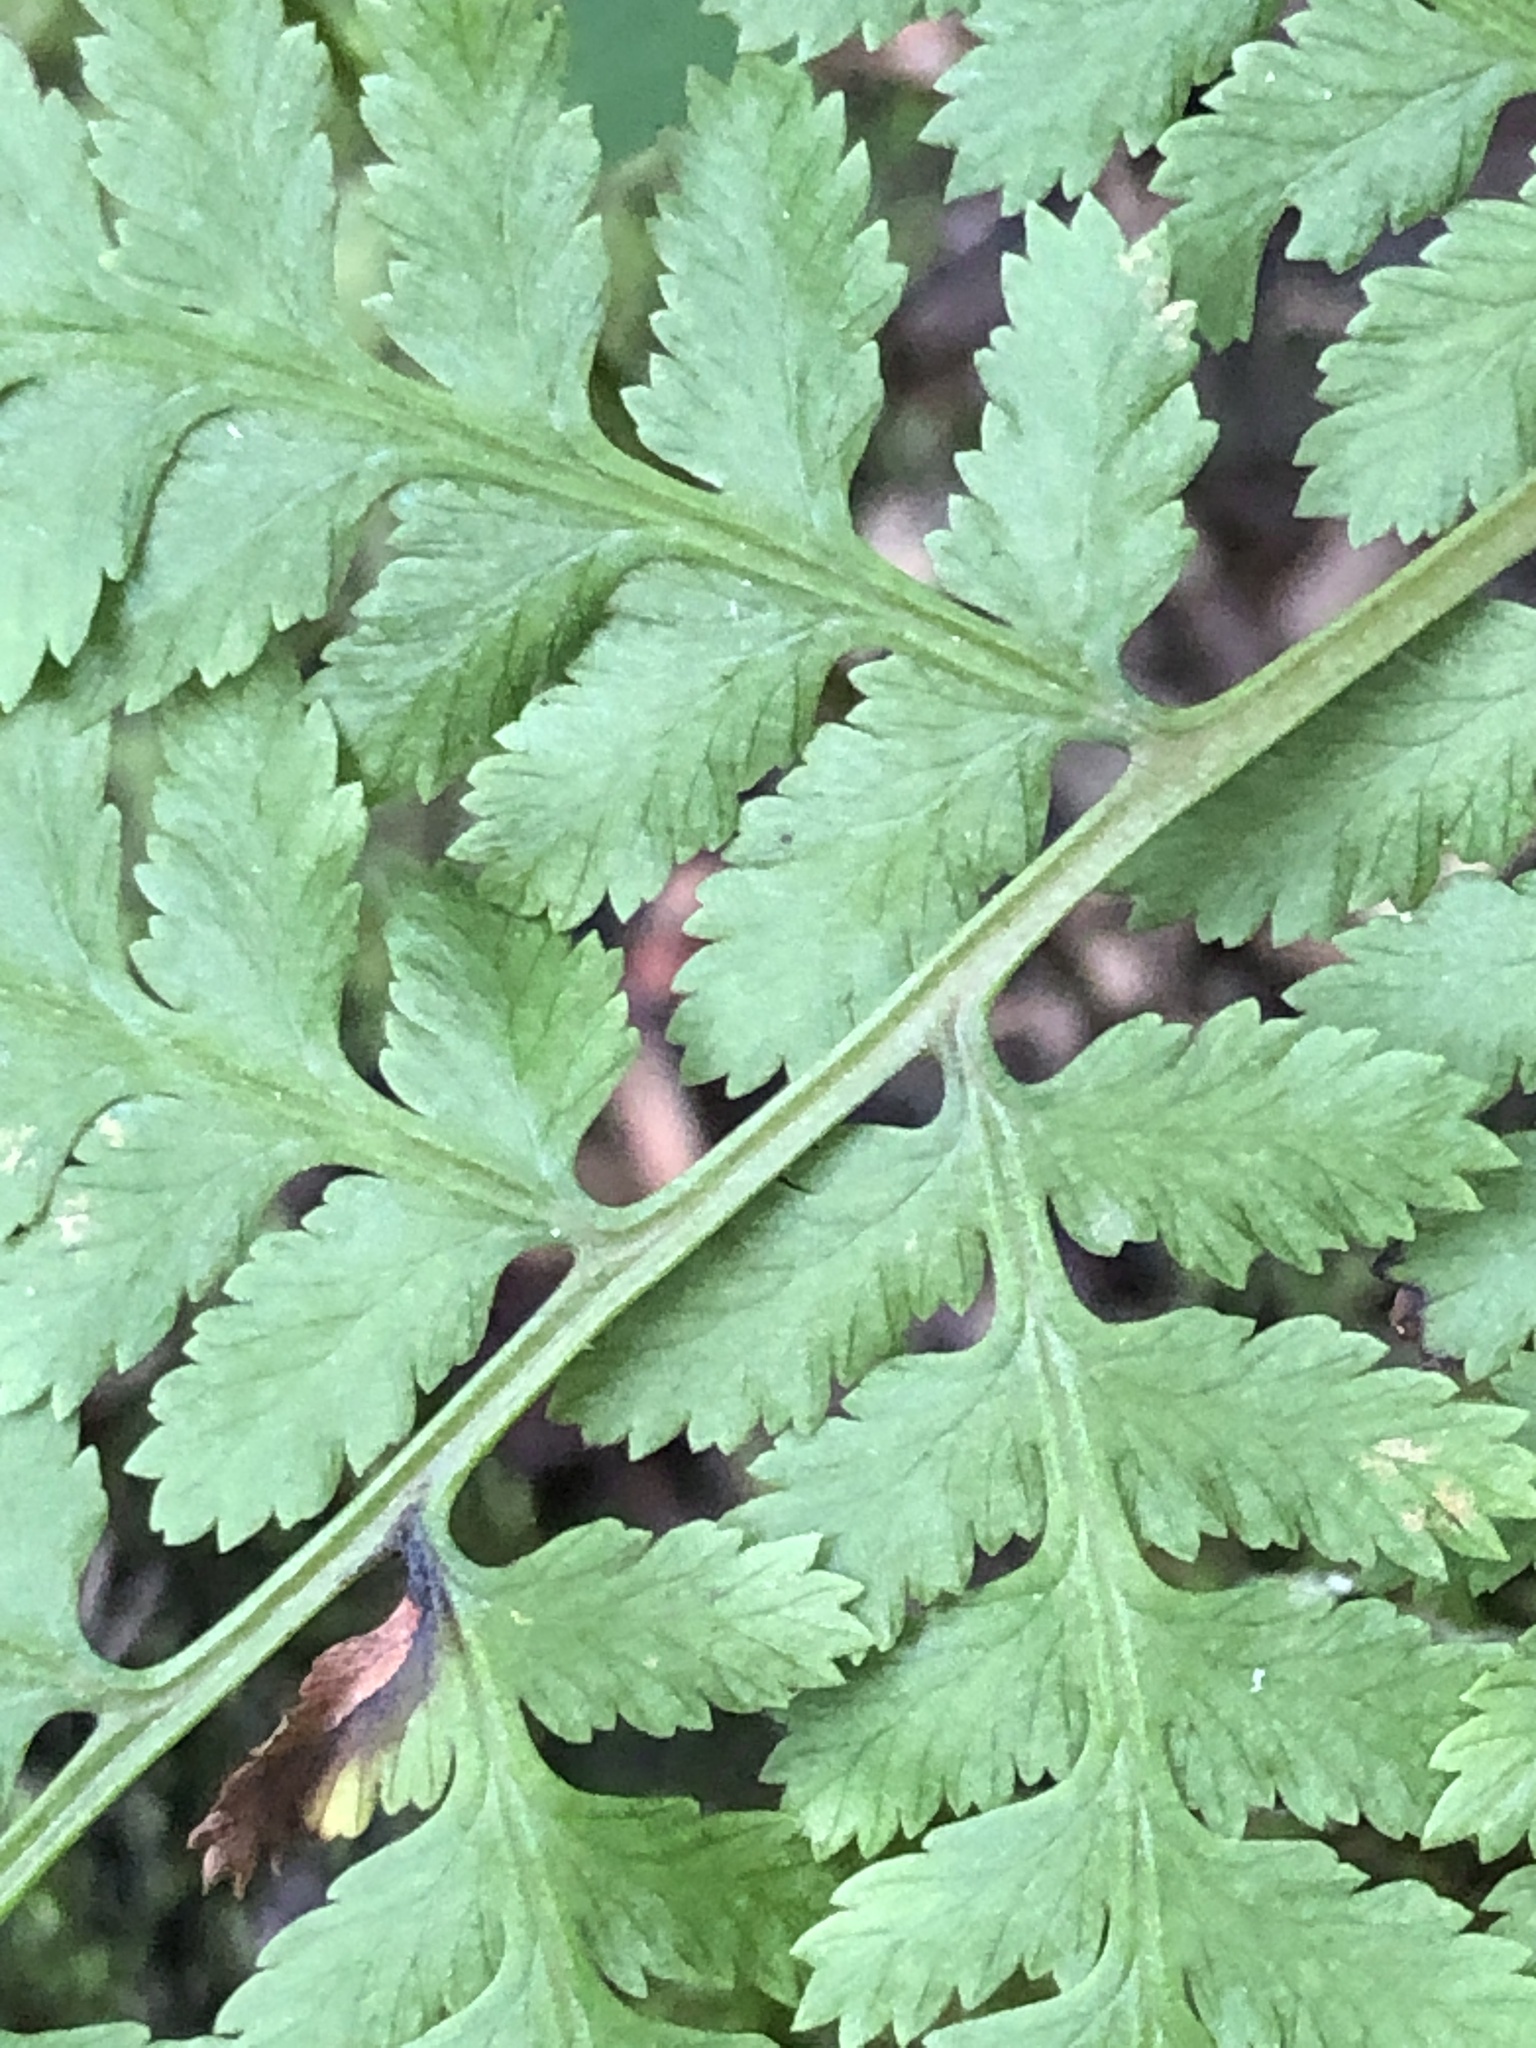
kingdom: Plantae
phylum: Tracheophyta
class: Polypodiopsida
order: Polypodiales
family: Athyriaceae
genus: Athyrium
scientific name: Athyrium asplenioides
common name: Southern lady fern
